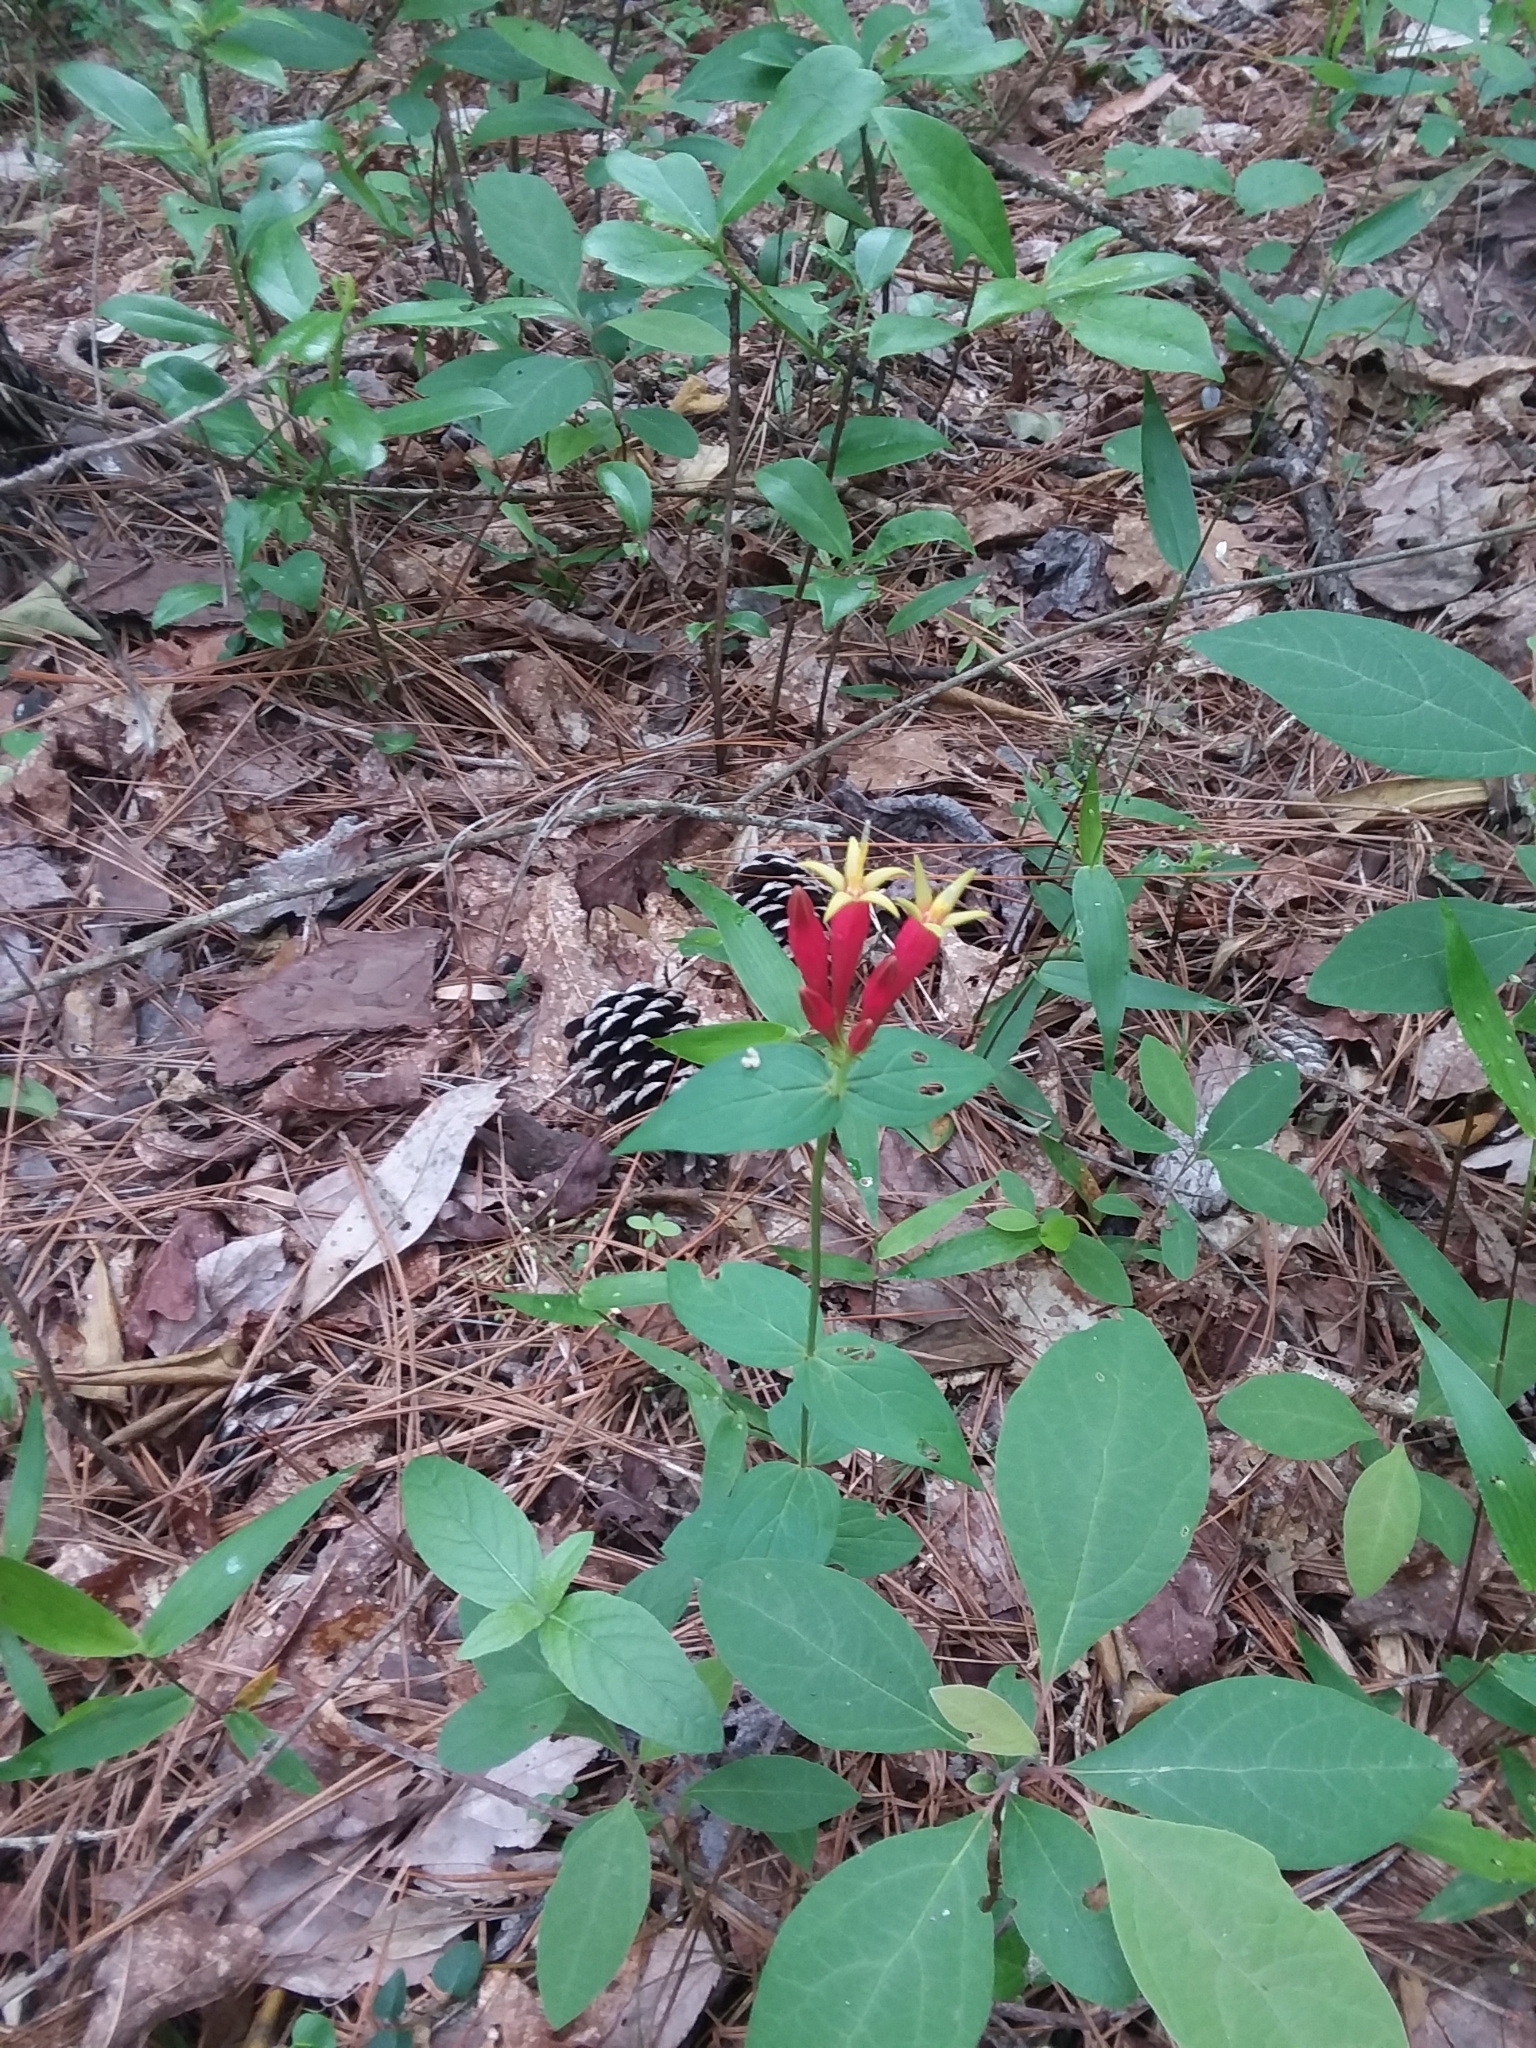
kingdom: Plantae
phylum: Tracheophyta
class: Magnoliopsida
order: Gentianales
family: Loganiaceae
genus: Spigelia
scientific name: Spigelia marilandica
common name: Indian-pink
